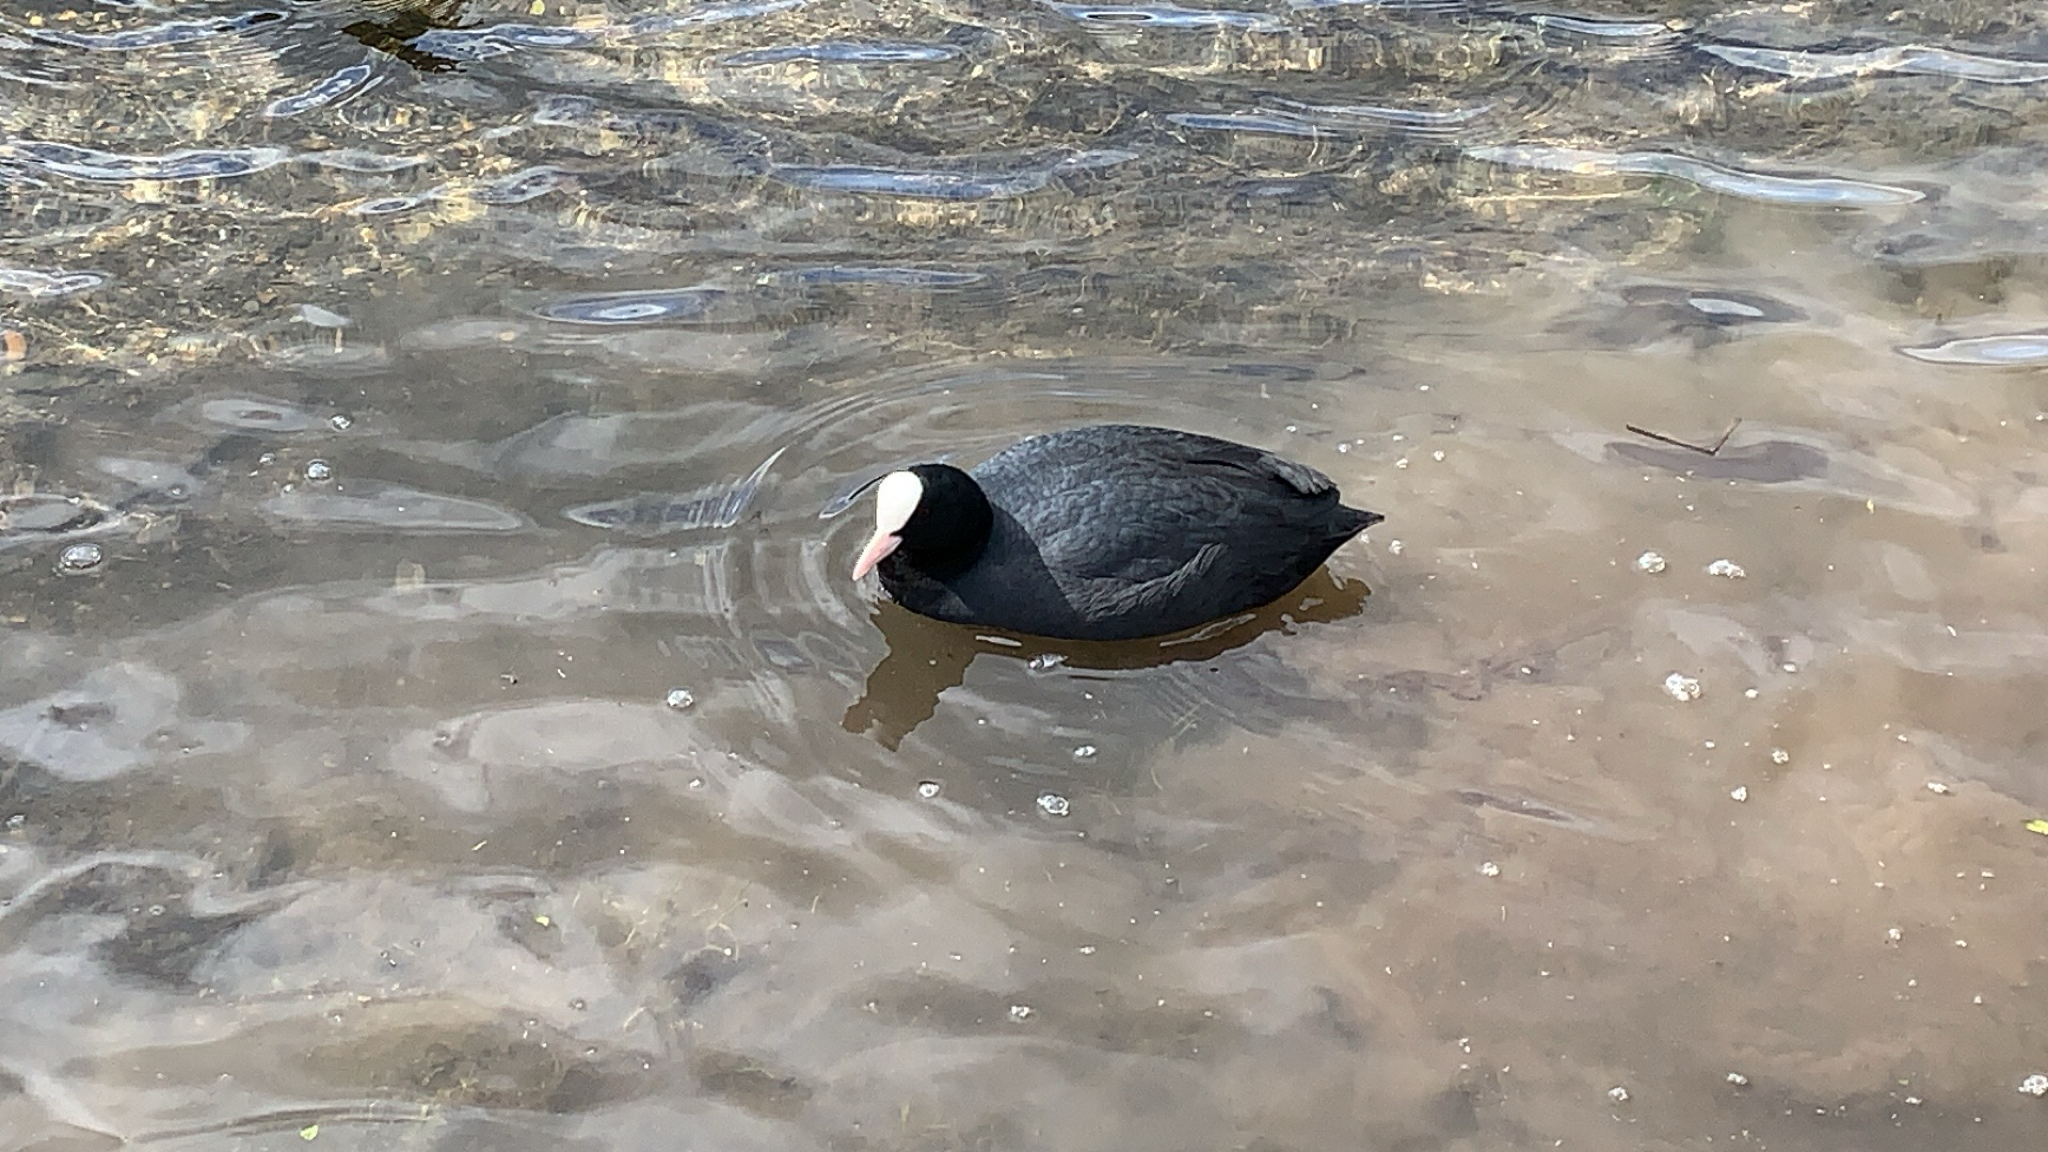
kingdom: Animalia
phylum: Chordata
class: Aves
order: Gruiformes
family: Rallidae
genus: Fulica
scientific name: Fulica atra
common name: Eurasian coot
